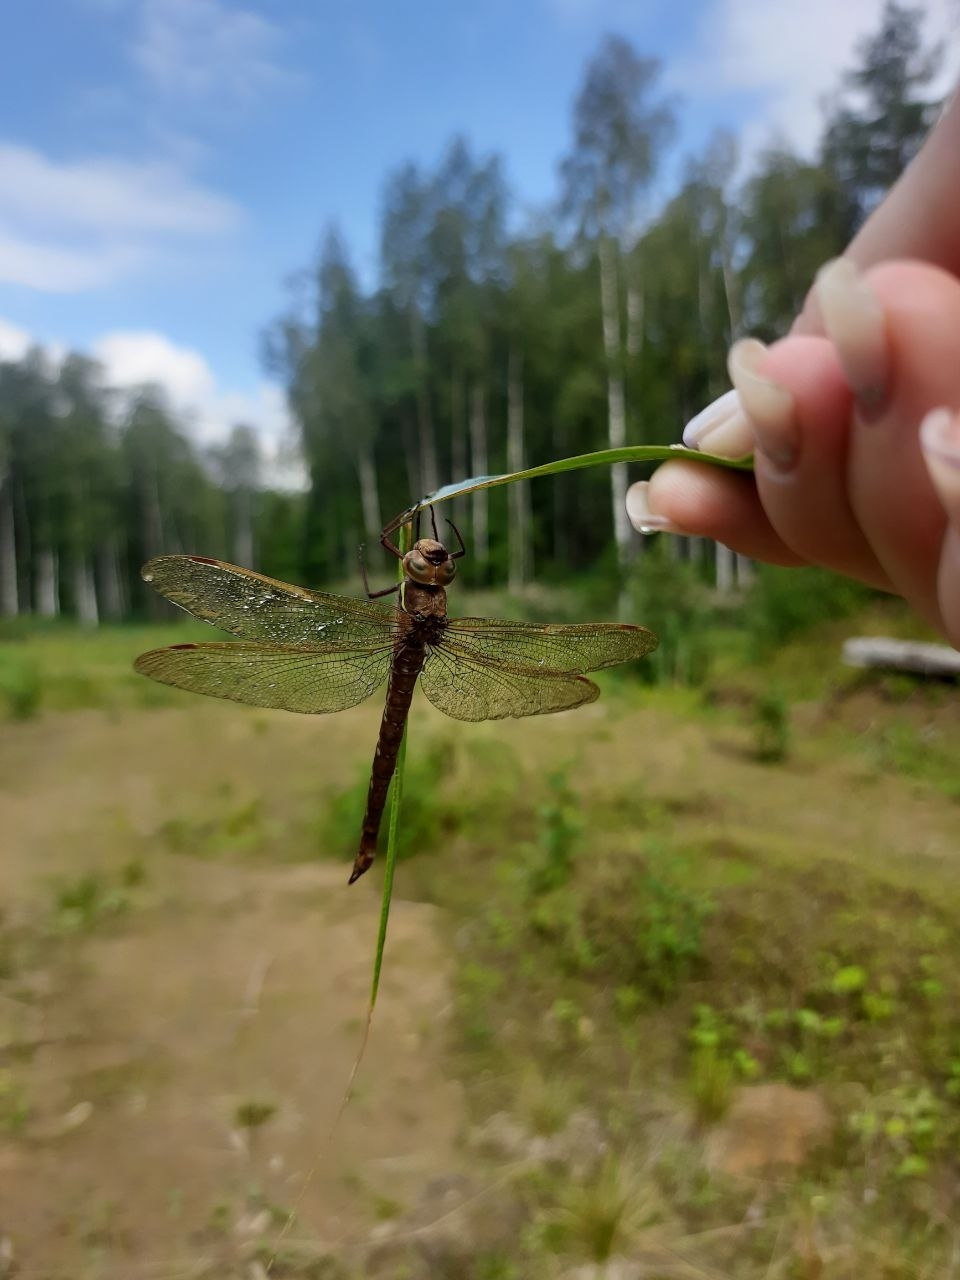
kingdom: Animalia
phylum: Arthropoda
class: Insecta
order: Odonata
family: Aeshnidae
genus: Aeshna
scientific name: Aeshna grandis
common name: Brown hawker
